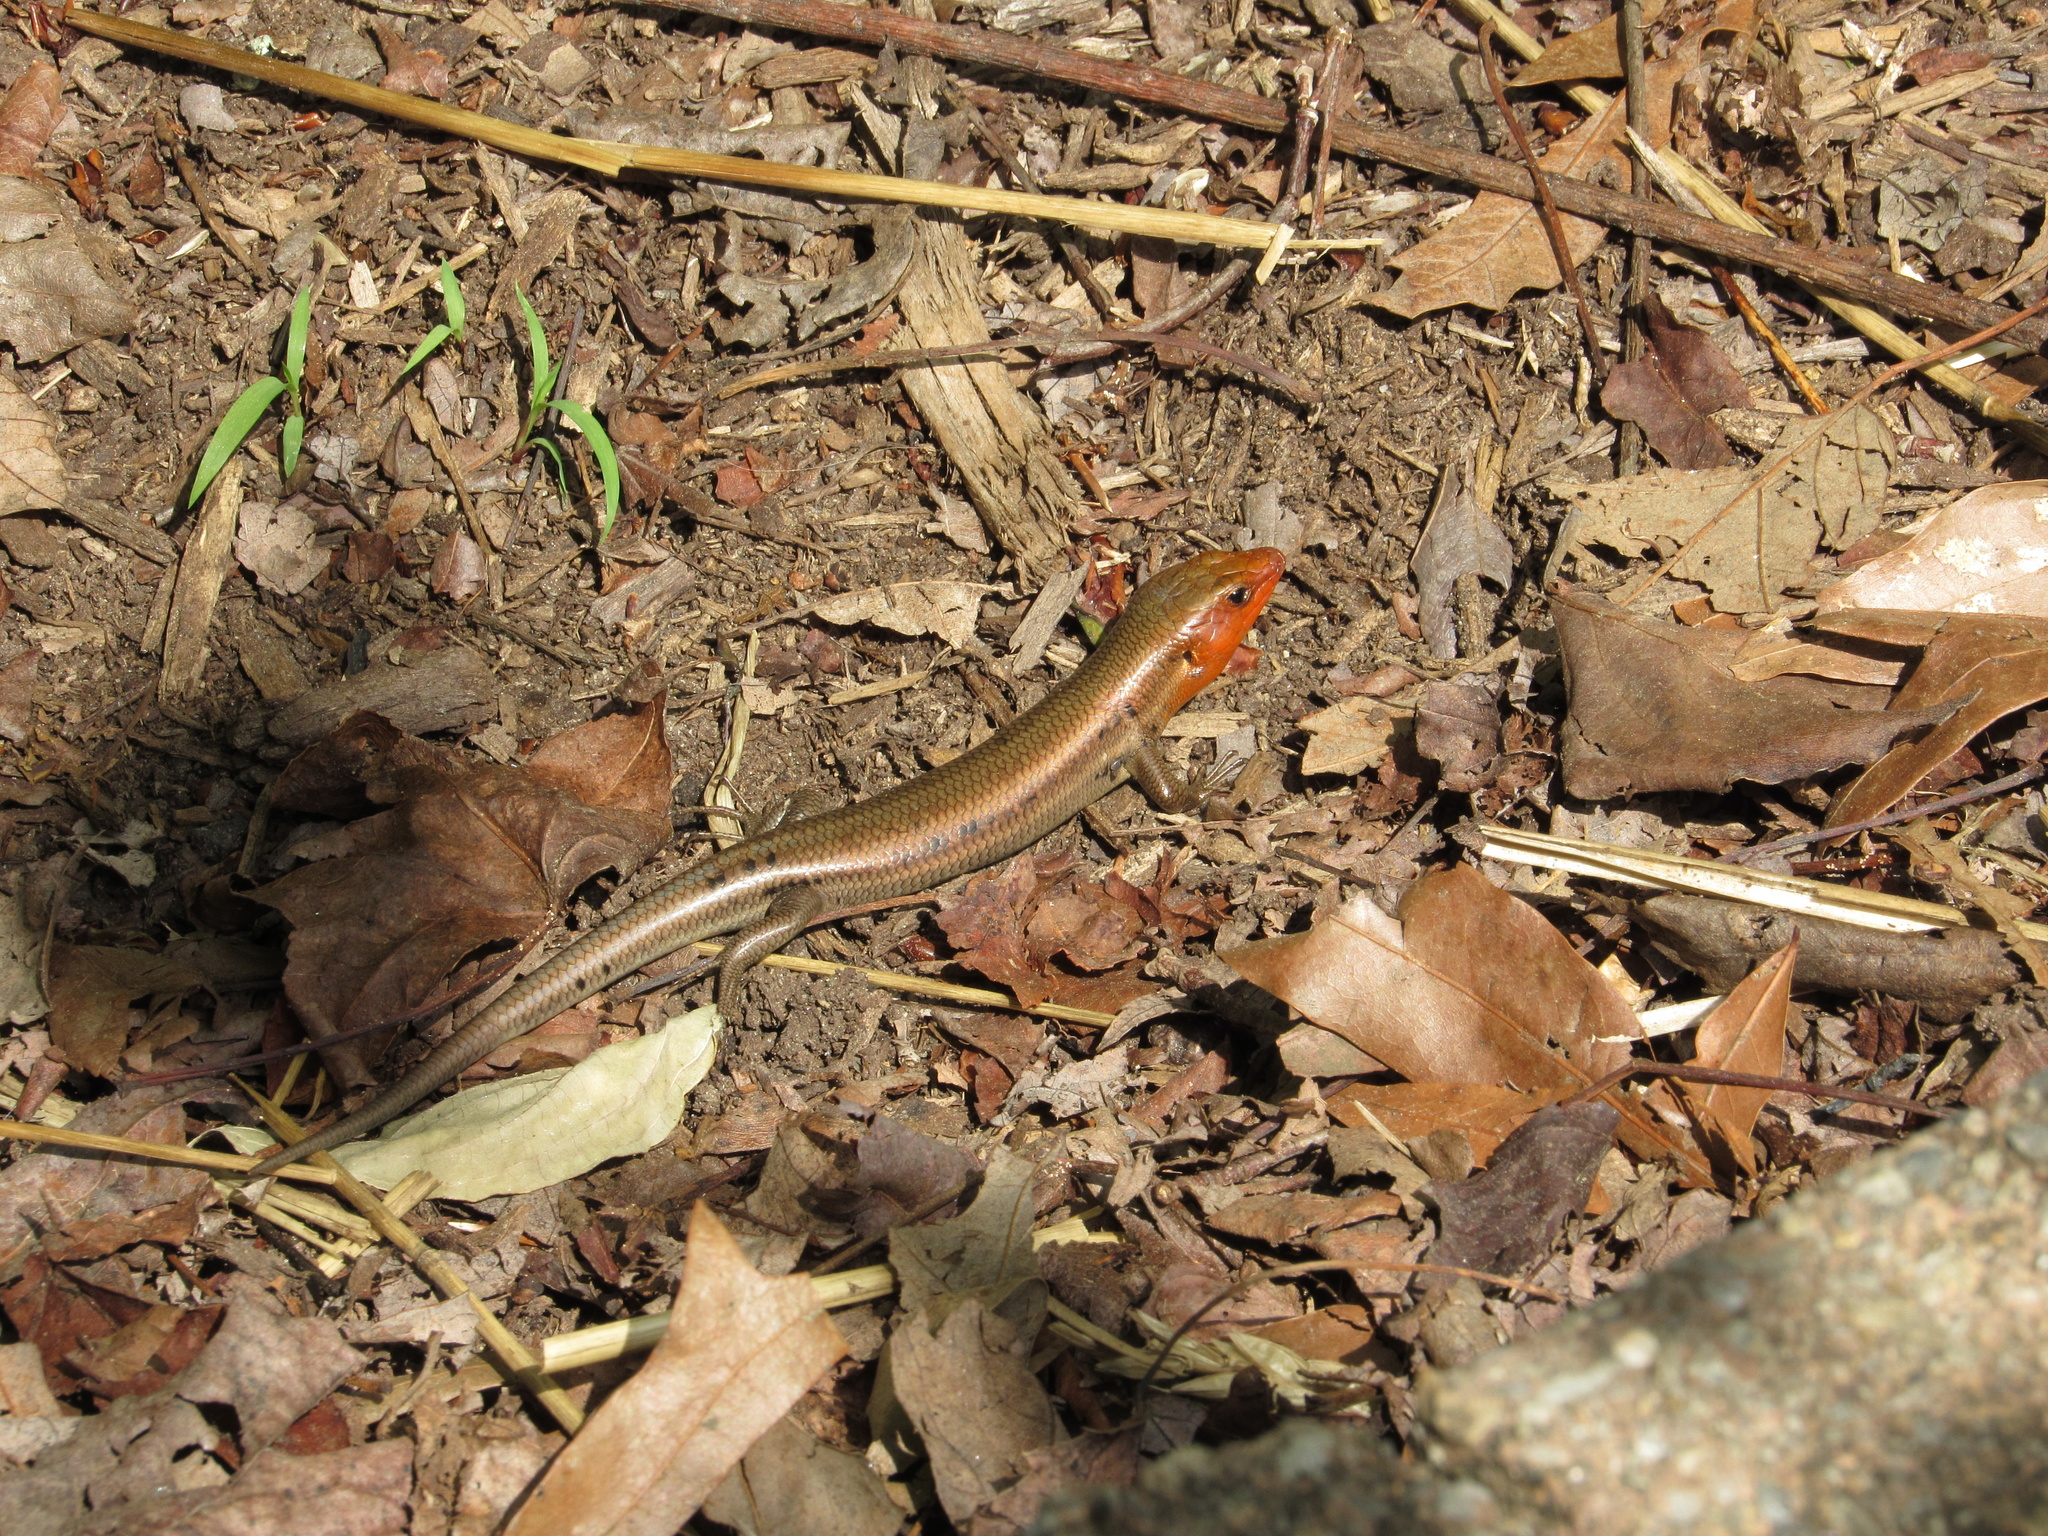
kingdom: Animalia
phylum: Chordata
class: Squamata
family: Scincidae
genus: Plestiodon
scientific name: Plestiodon fasciatus
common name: Five-lined skink
